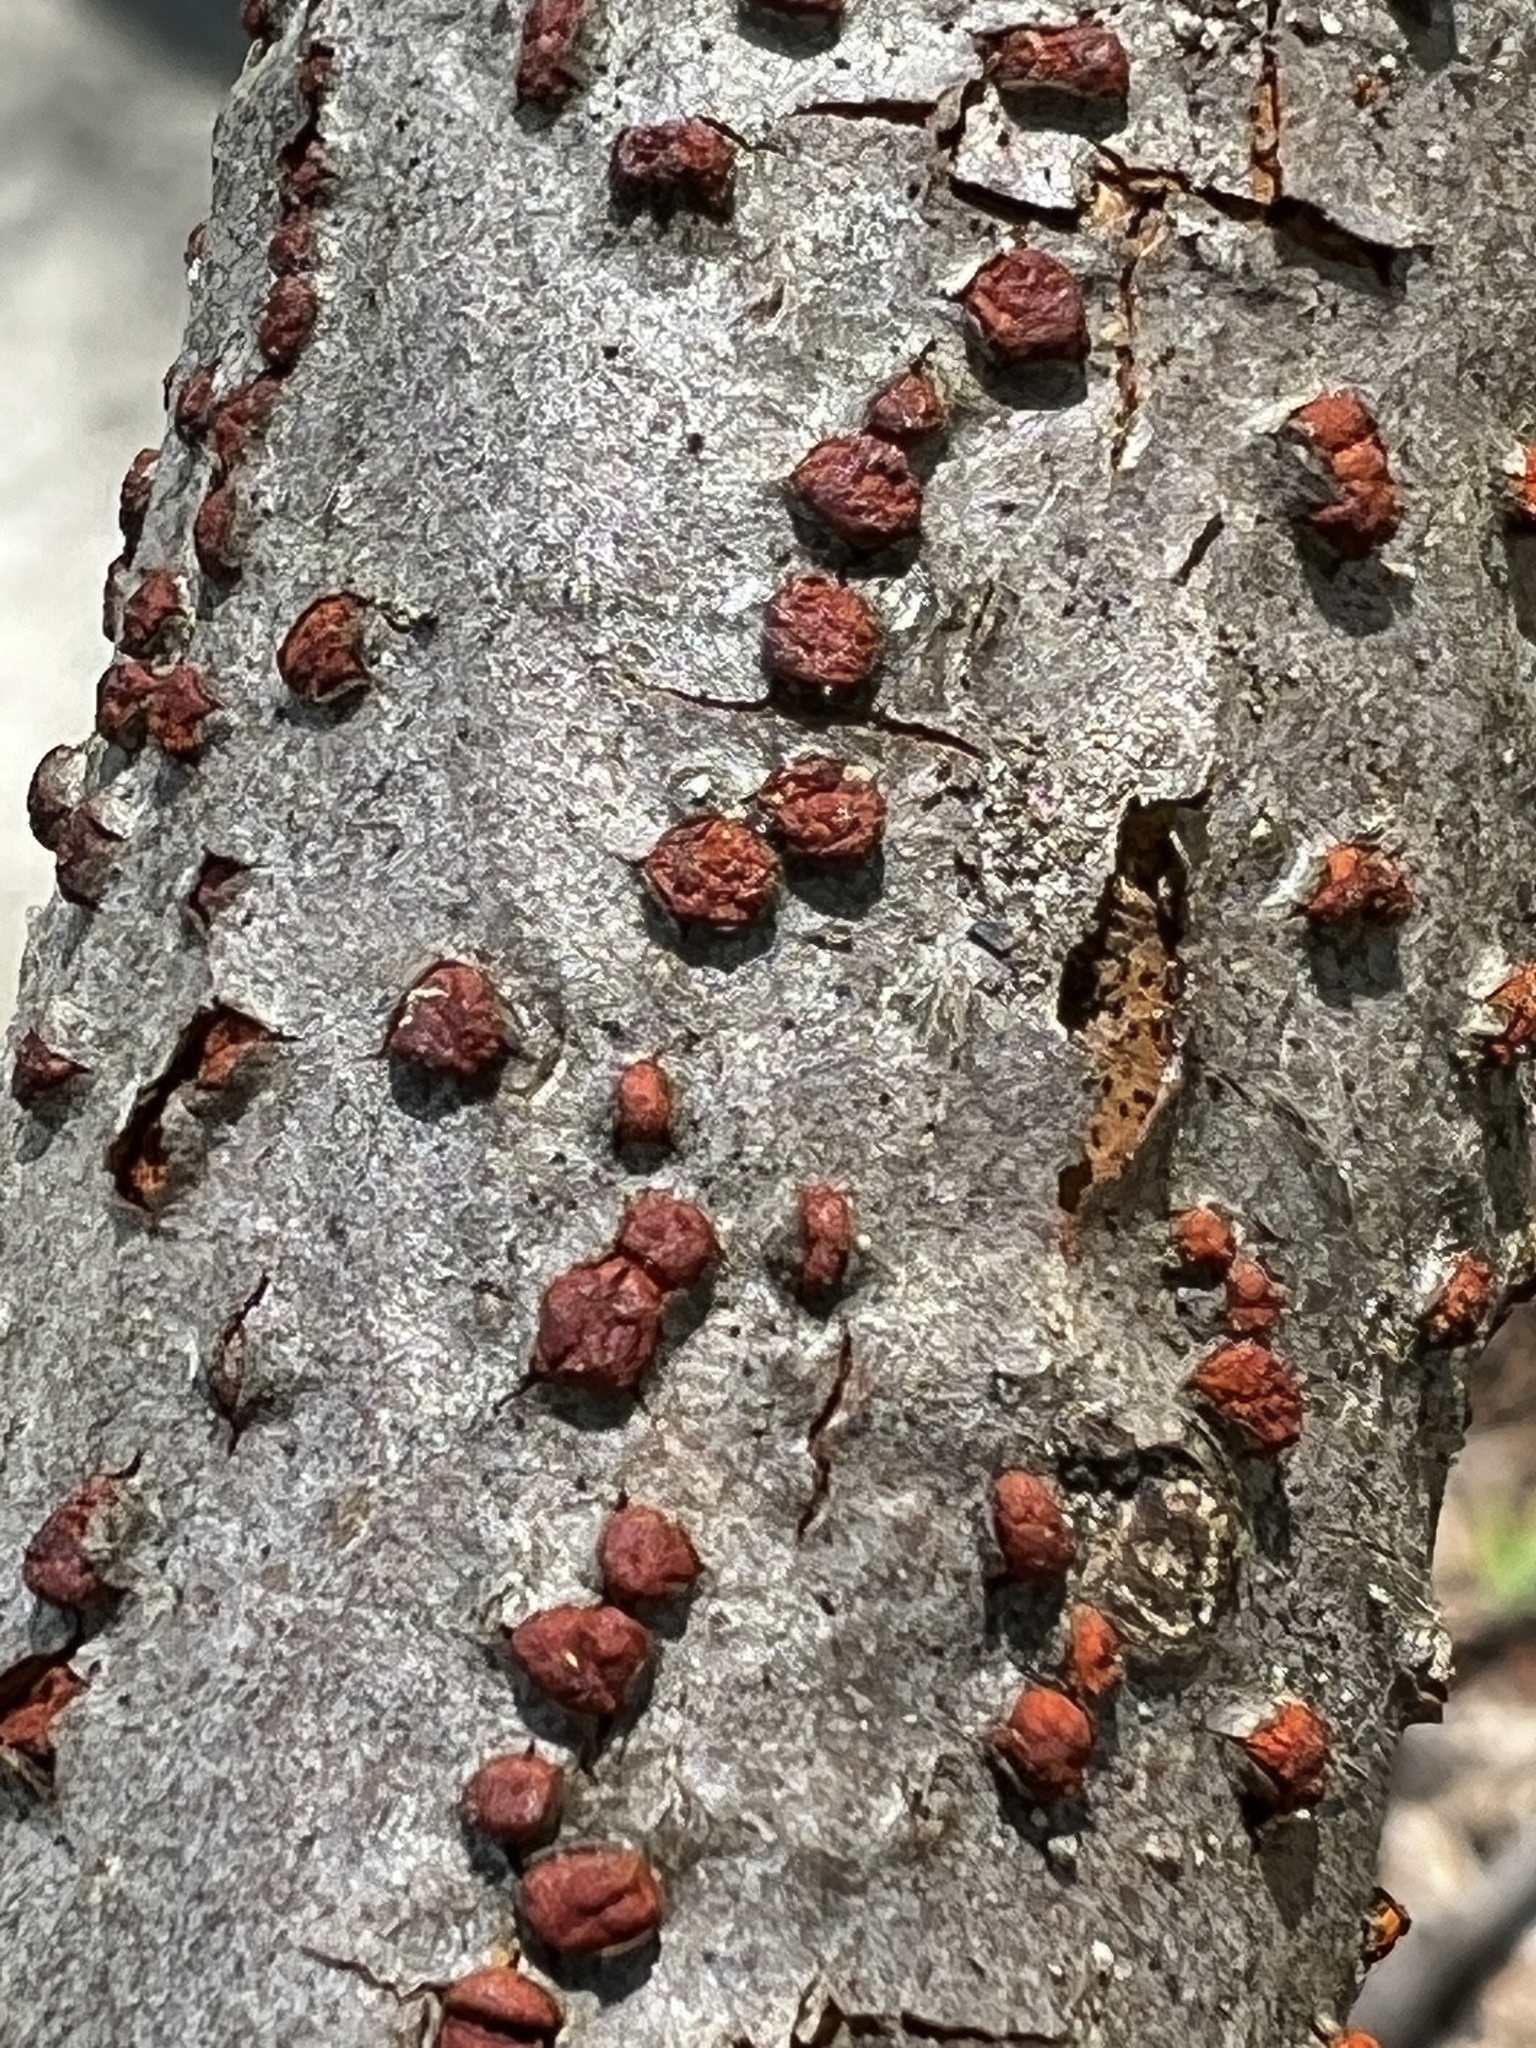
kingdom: Fungi
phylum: Ascomycota
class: Sordariomycetes
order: Diaporthales
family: Cryphonectriaceae
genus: Amphilogia
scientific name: Amphilogia gyrosa
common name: Orange hobnail canker
